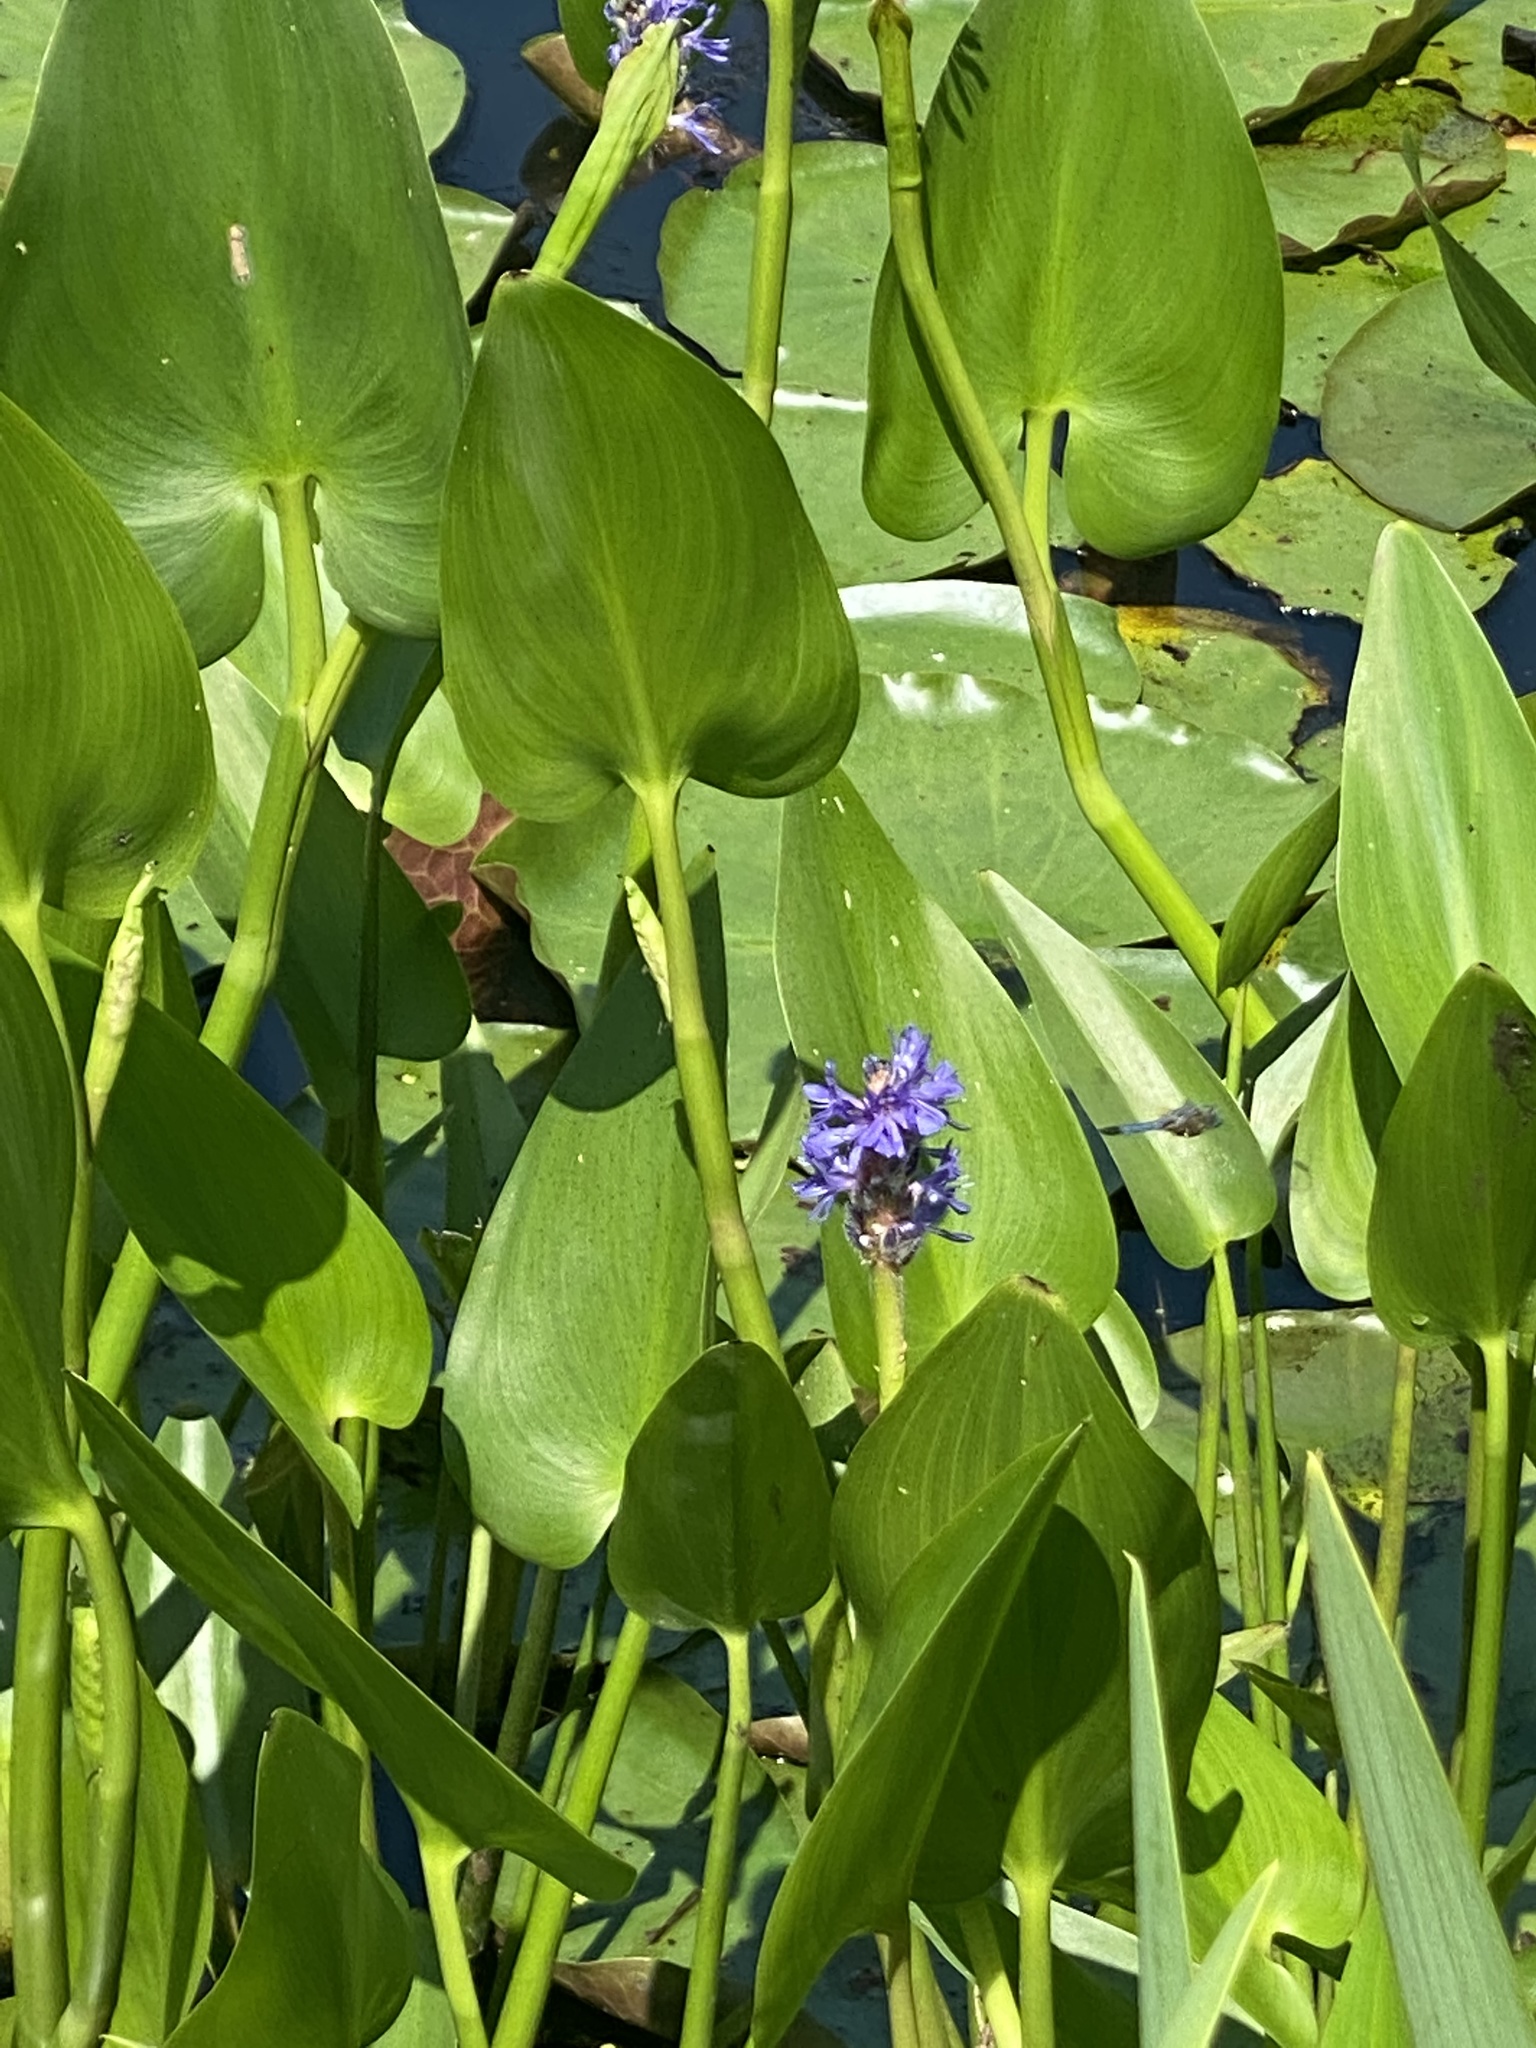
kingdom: Plantae
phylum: Tracheophyta
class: Liliopsida
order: Commelinales
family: Pontederiaceae
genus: Pontederia
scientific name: Pontederia cordata
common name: Pickerelweed
